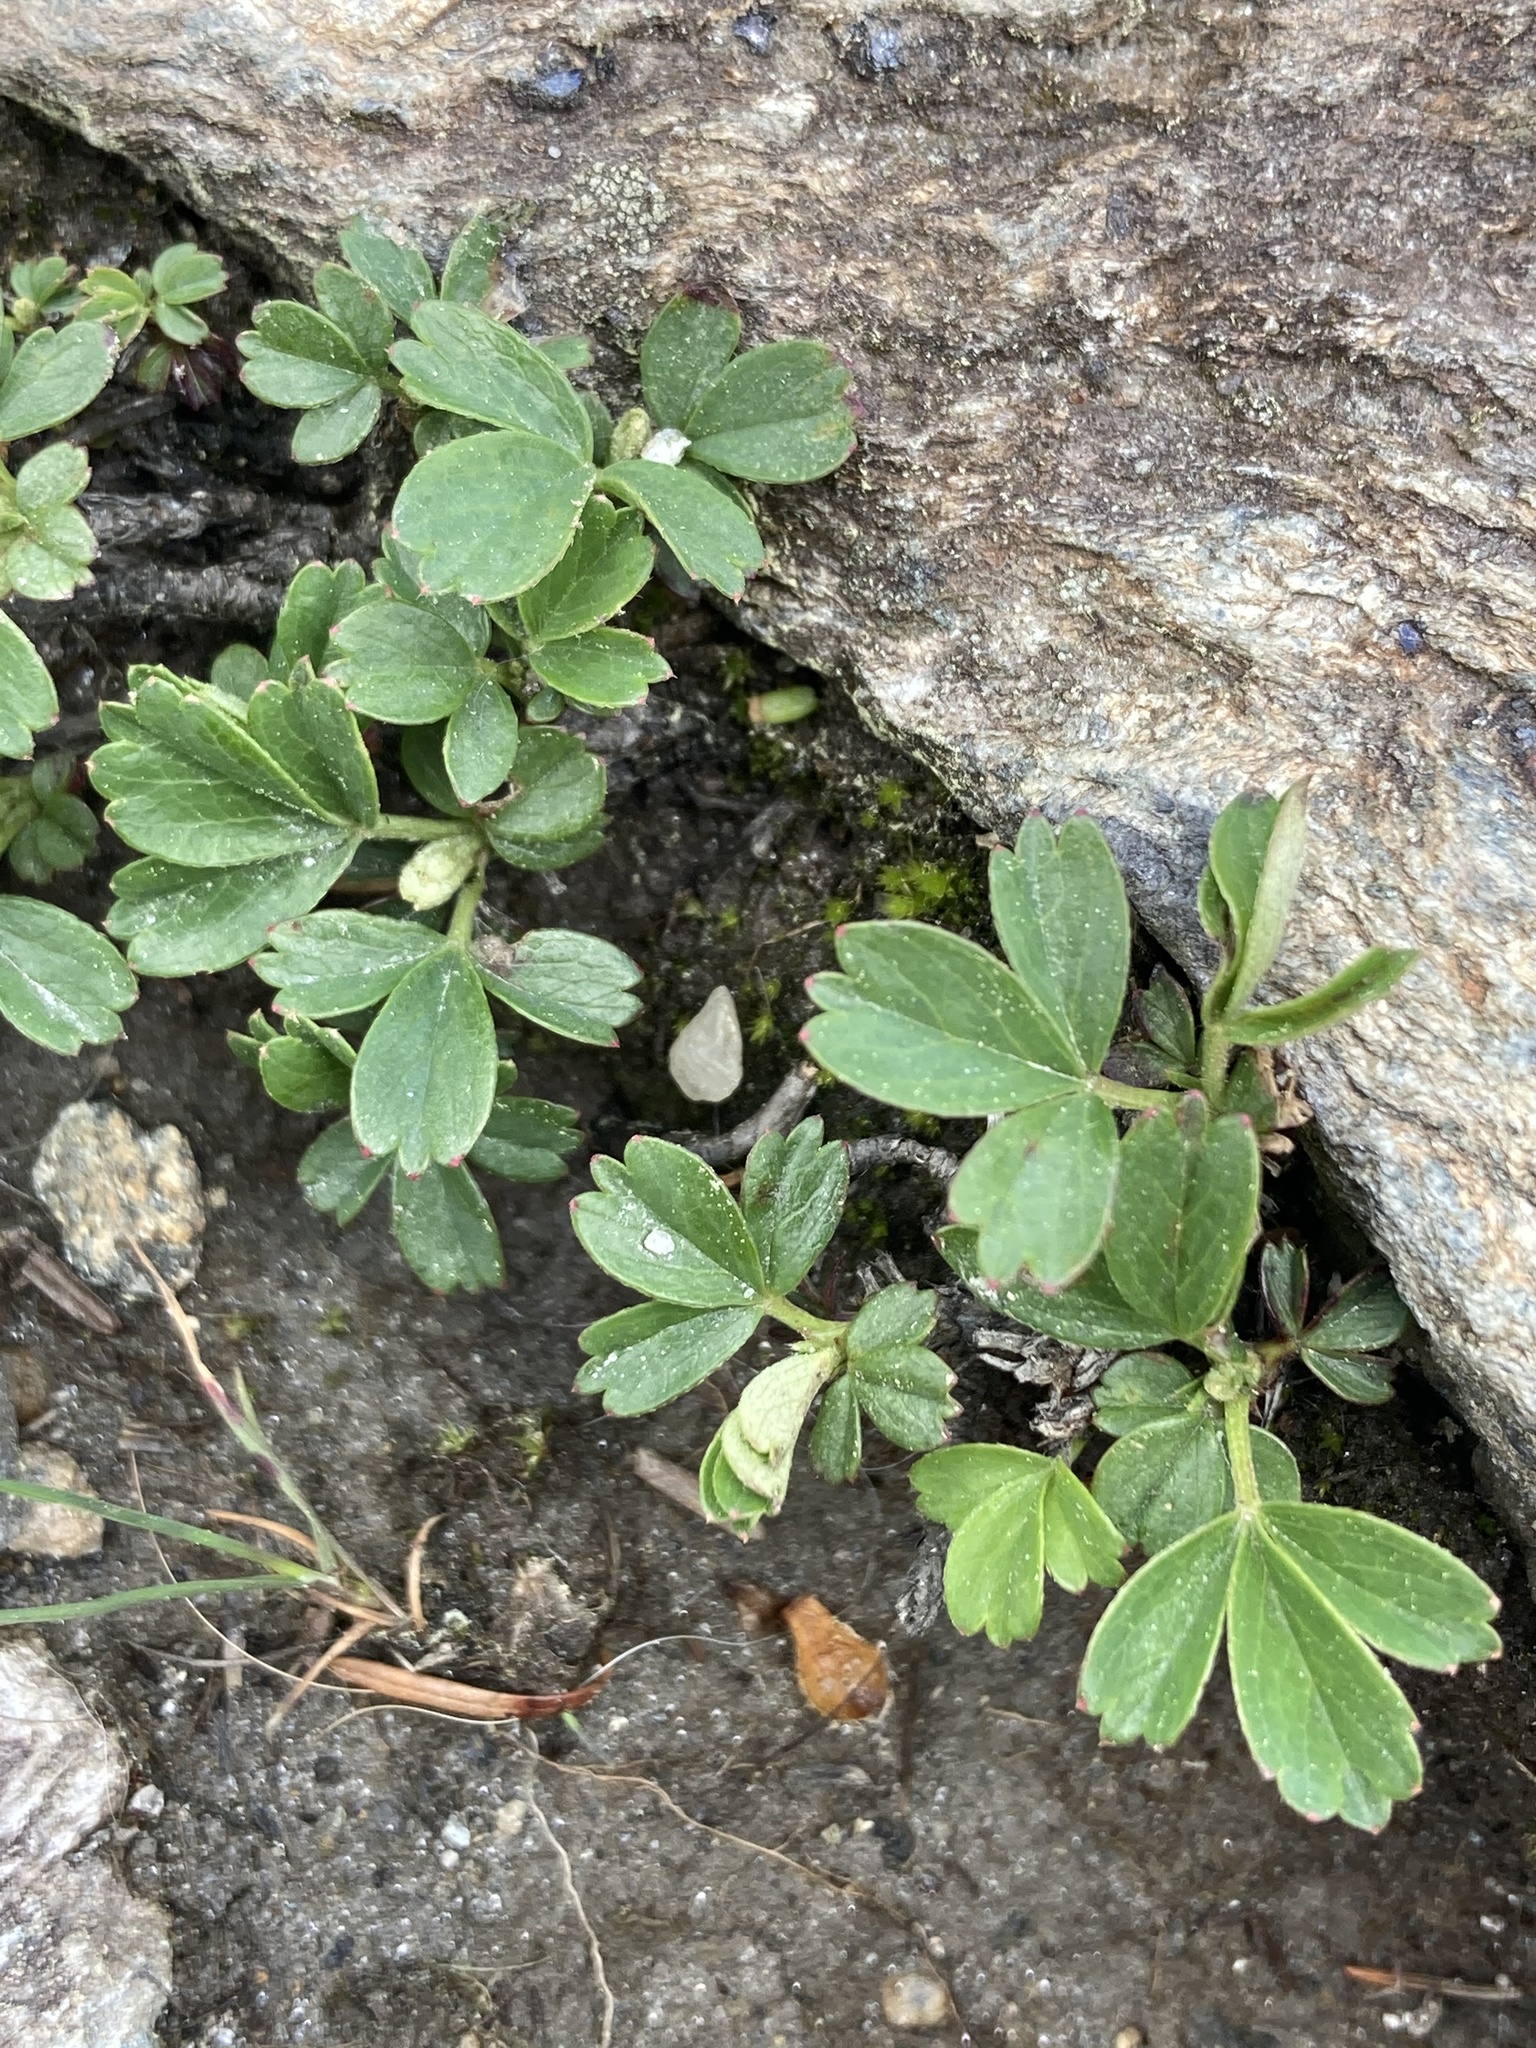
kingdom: Plantae
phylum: Tracheophyta
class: Magnoliopsida
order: Rosales
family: Rosaceae
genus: Sibbaldia
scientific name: Sibbaldia tridentata
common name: Three-toothed cinquefoil
